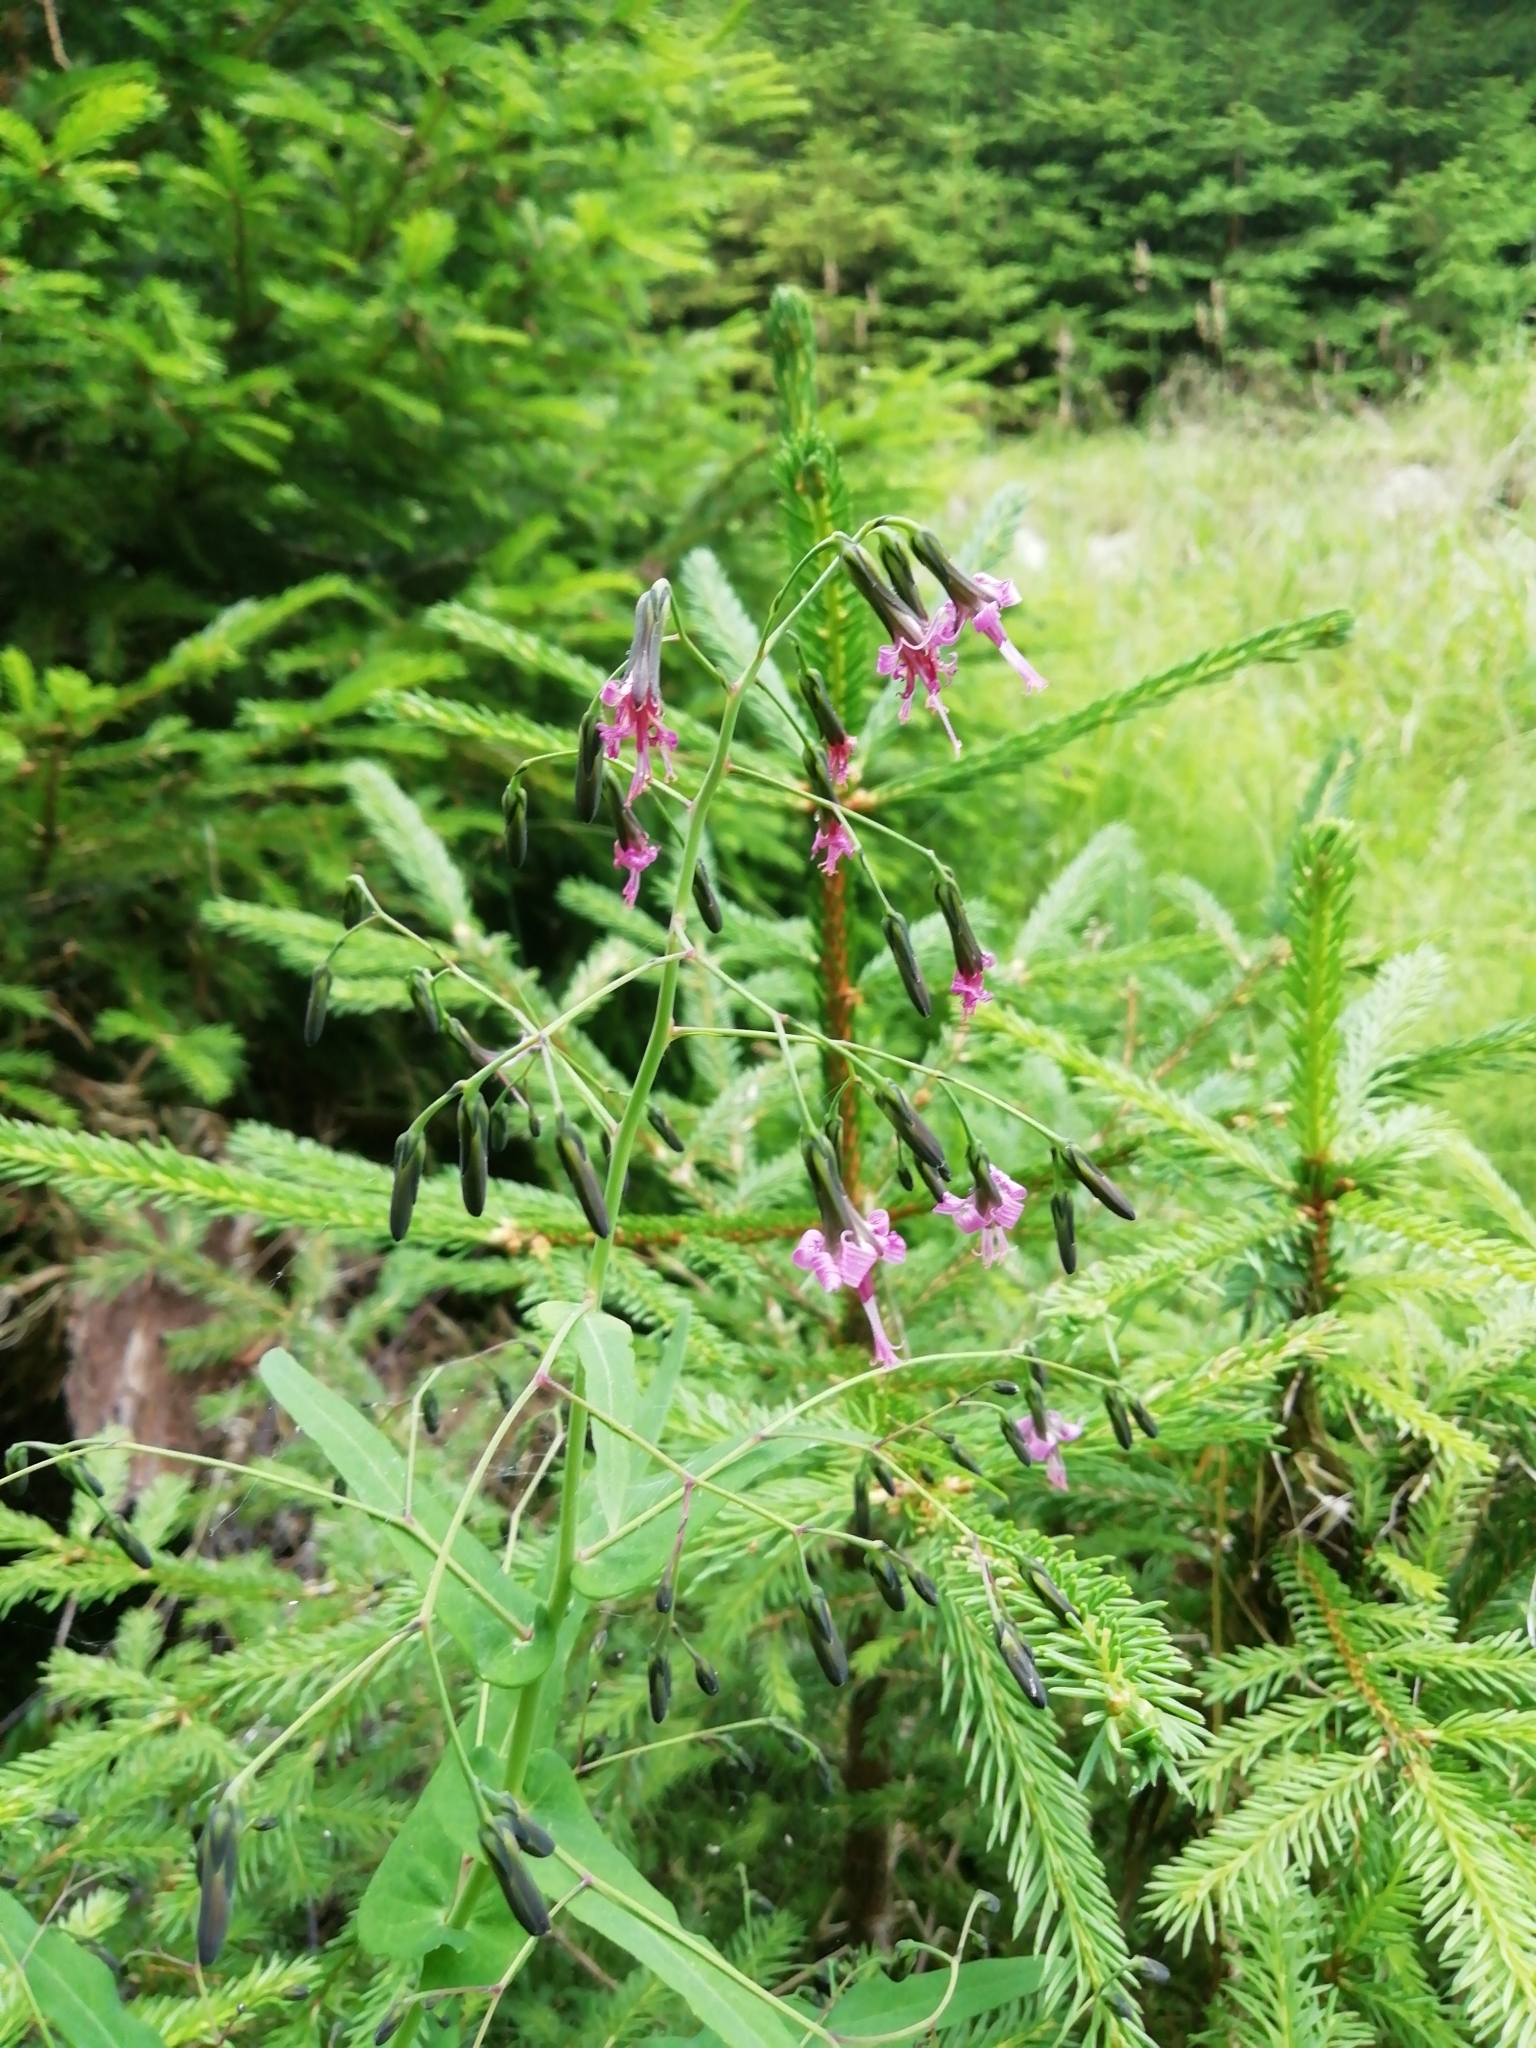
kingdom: Plantae
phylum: Tracheophyta
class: Magnoliopsida
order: Asterales
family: Asteraceae
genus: Prenanthes
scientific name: Prenanthes purpurea
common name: Purple lettuce
